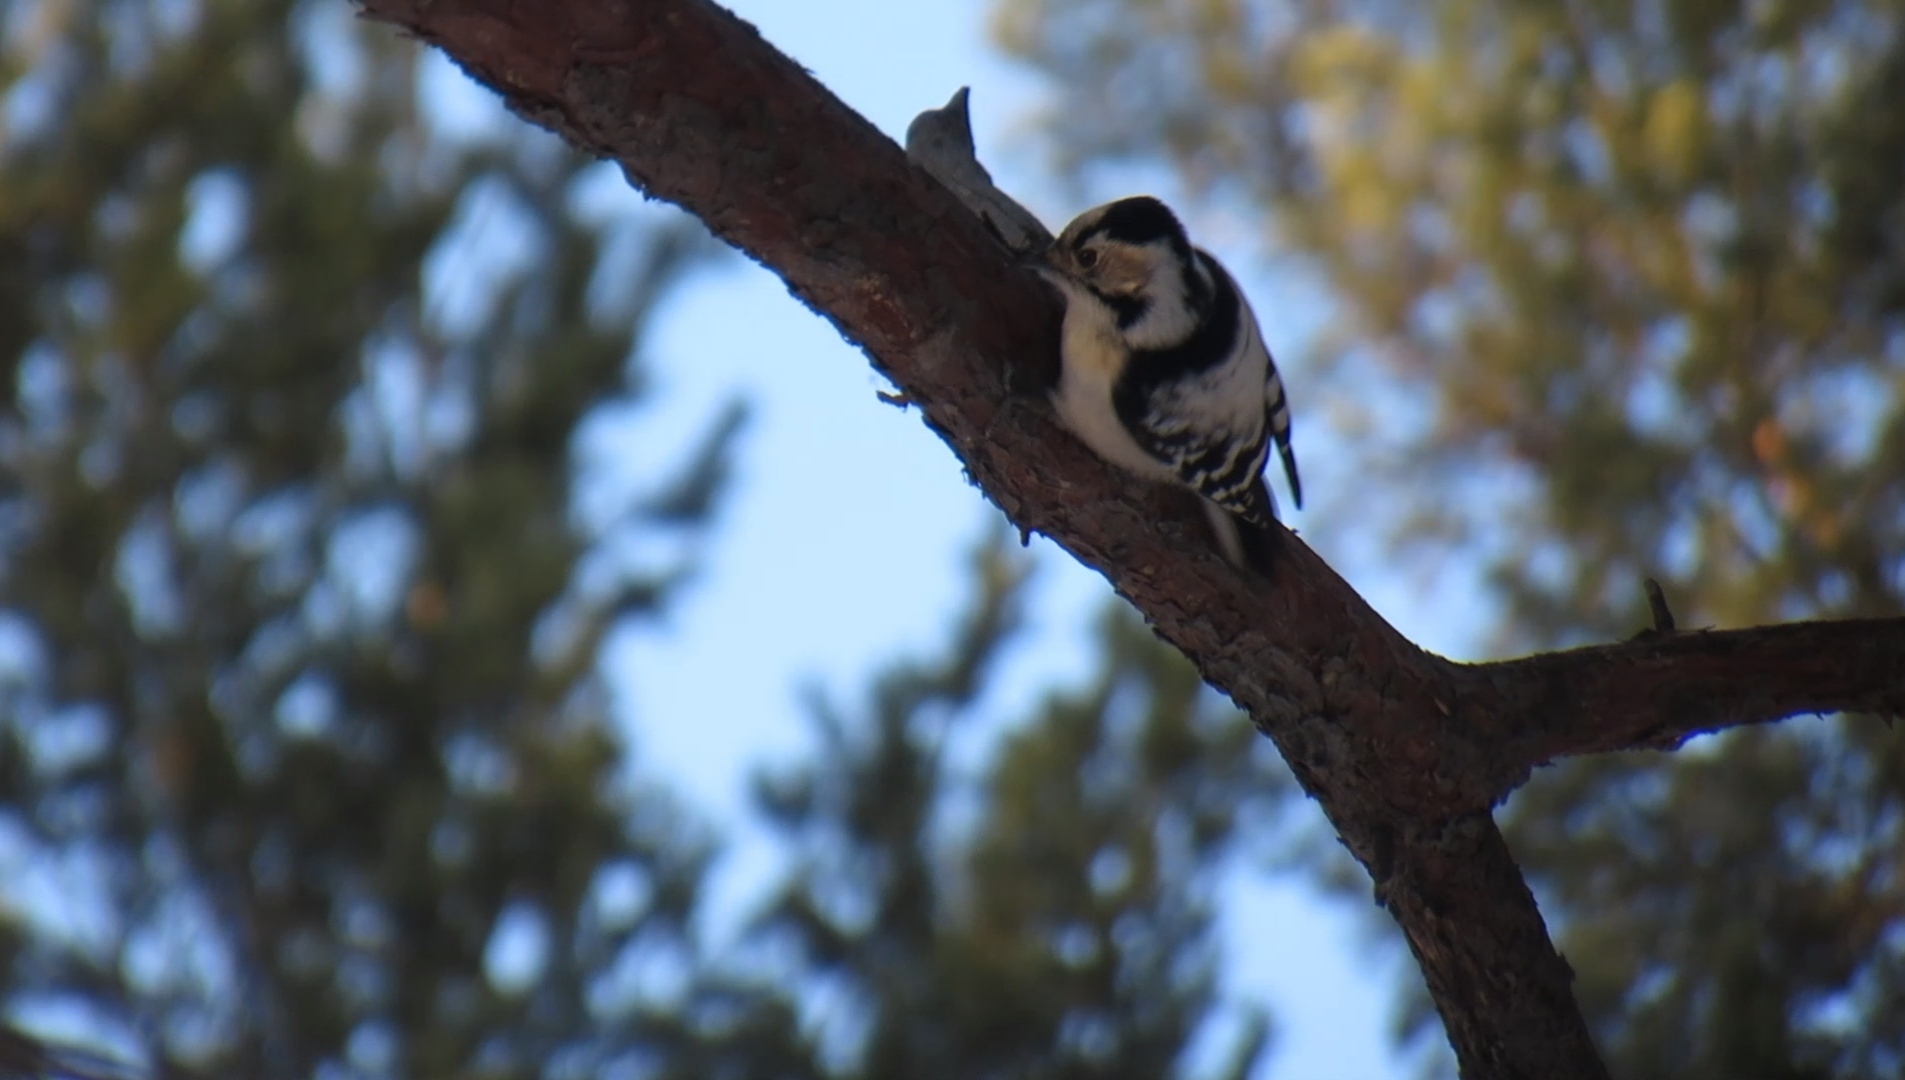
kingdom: Animalia
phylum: Chordata
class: Aves
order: Piciformes
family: Picidae
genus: Dryobates
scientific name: Dryobates minor
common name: Lesser spotted woodpecker
